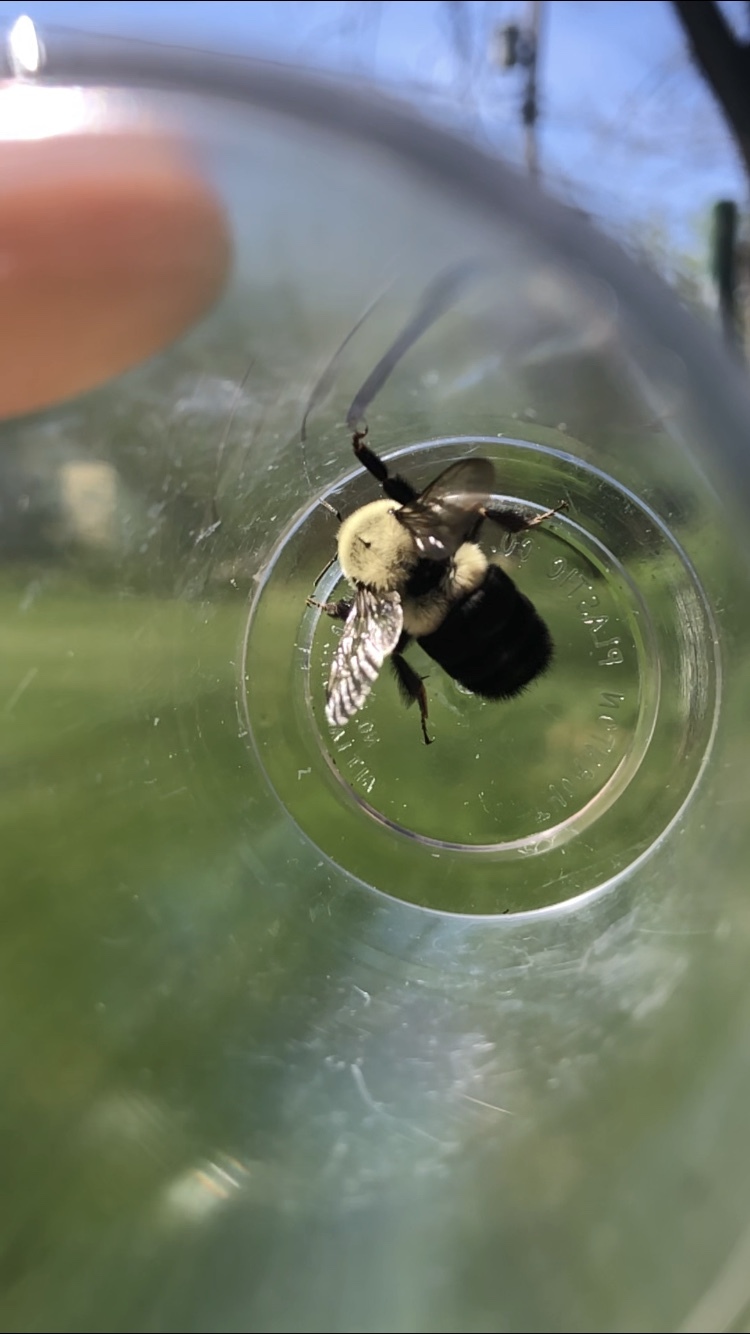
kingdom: Animalia
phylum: Arthropoda
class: Insecta
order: Hymenoptera
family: Apidae
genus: Bombus
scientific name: Bombus impatiens
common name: Common eastern bumble bee
